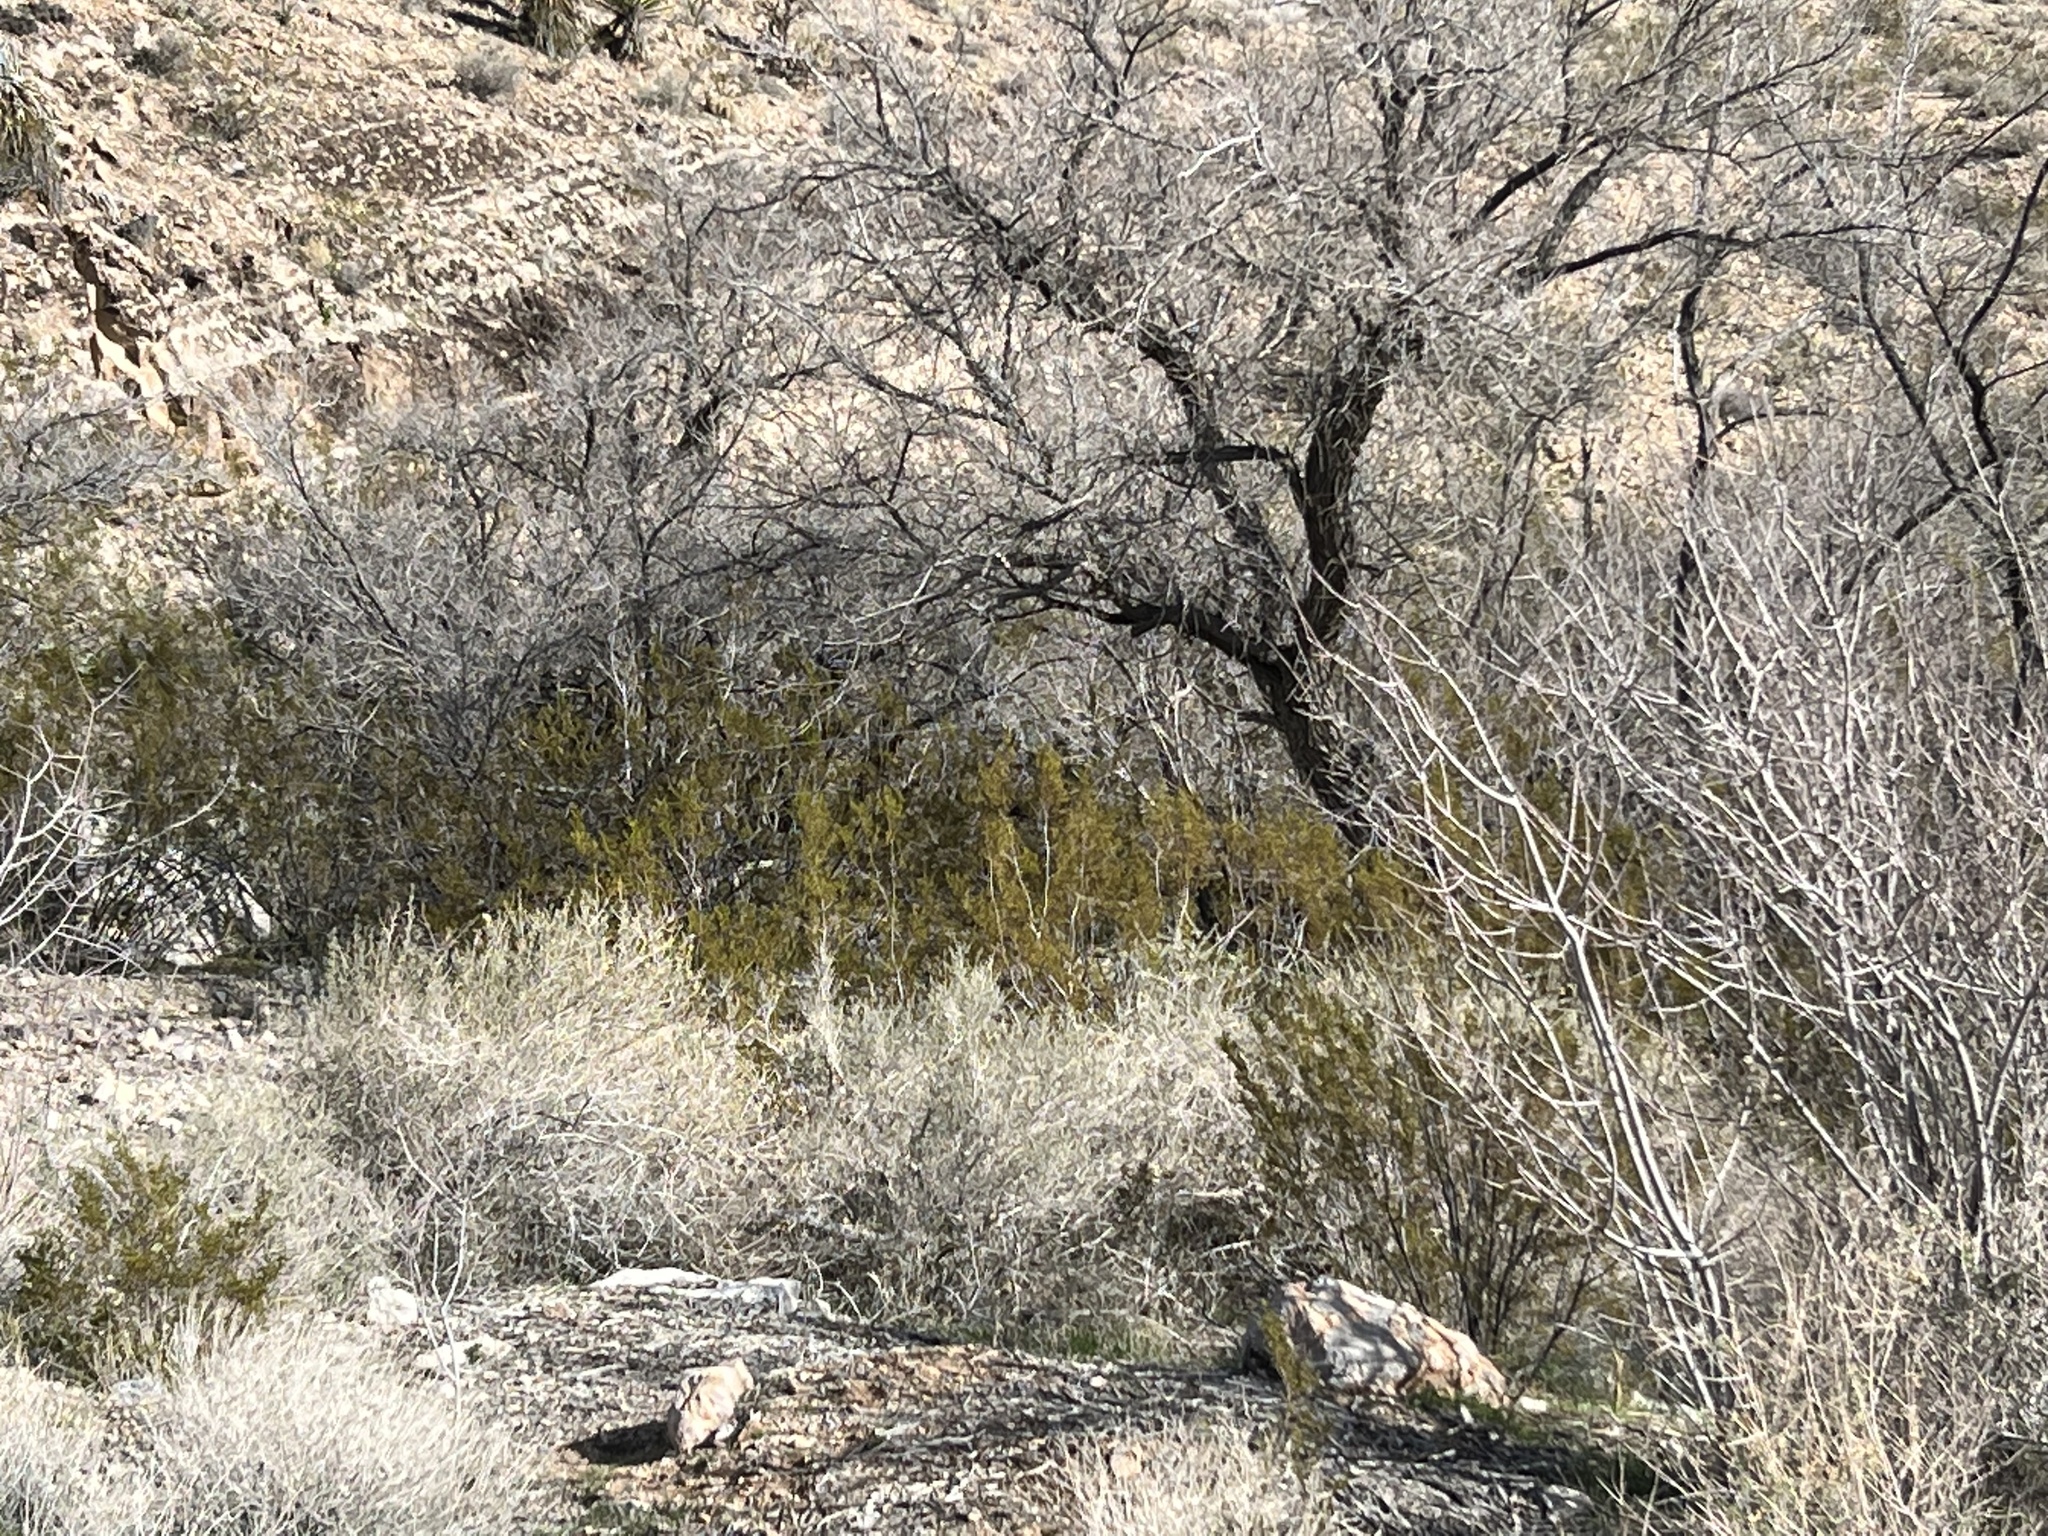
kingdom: Plantae
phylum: Tracheophyta
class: Magnoliopsida
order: Zygophyllales
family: Zygophyllaceae
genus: Larrea
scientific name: Larrea tridentata
